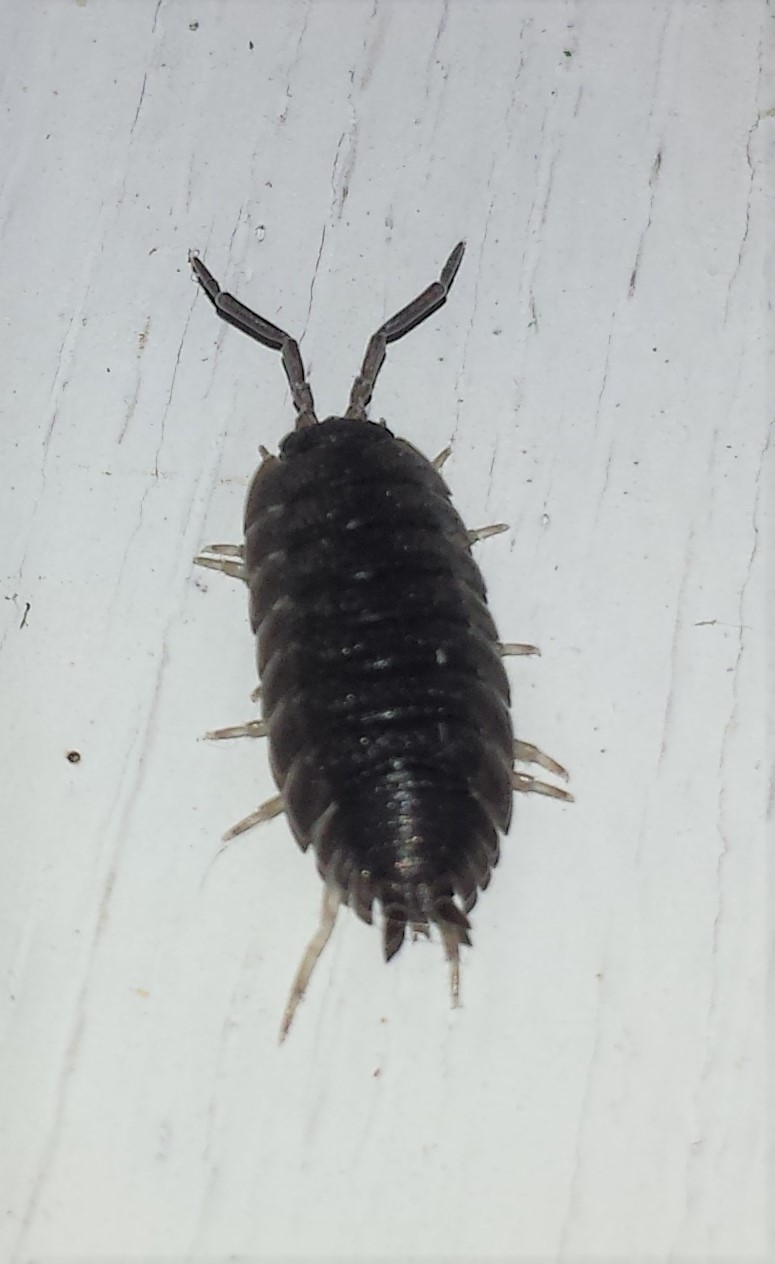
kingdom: Animalia
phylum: Arthropoda
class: Malacostraca
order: Isopoda
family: Porcellionidae
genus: Porcellio
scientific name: Porcellio scaber
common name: Common rough woodlouse
